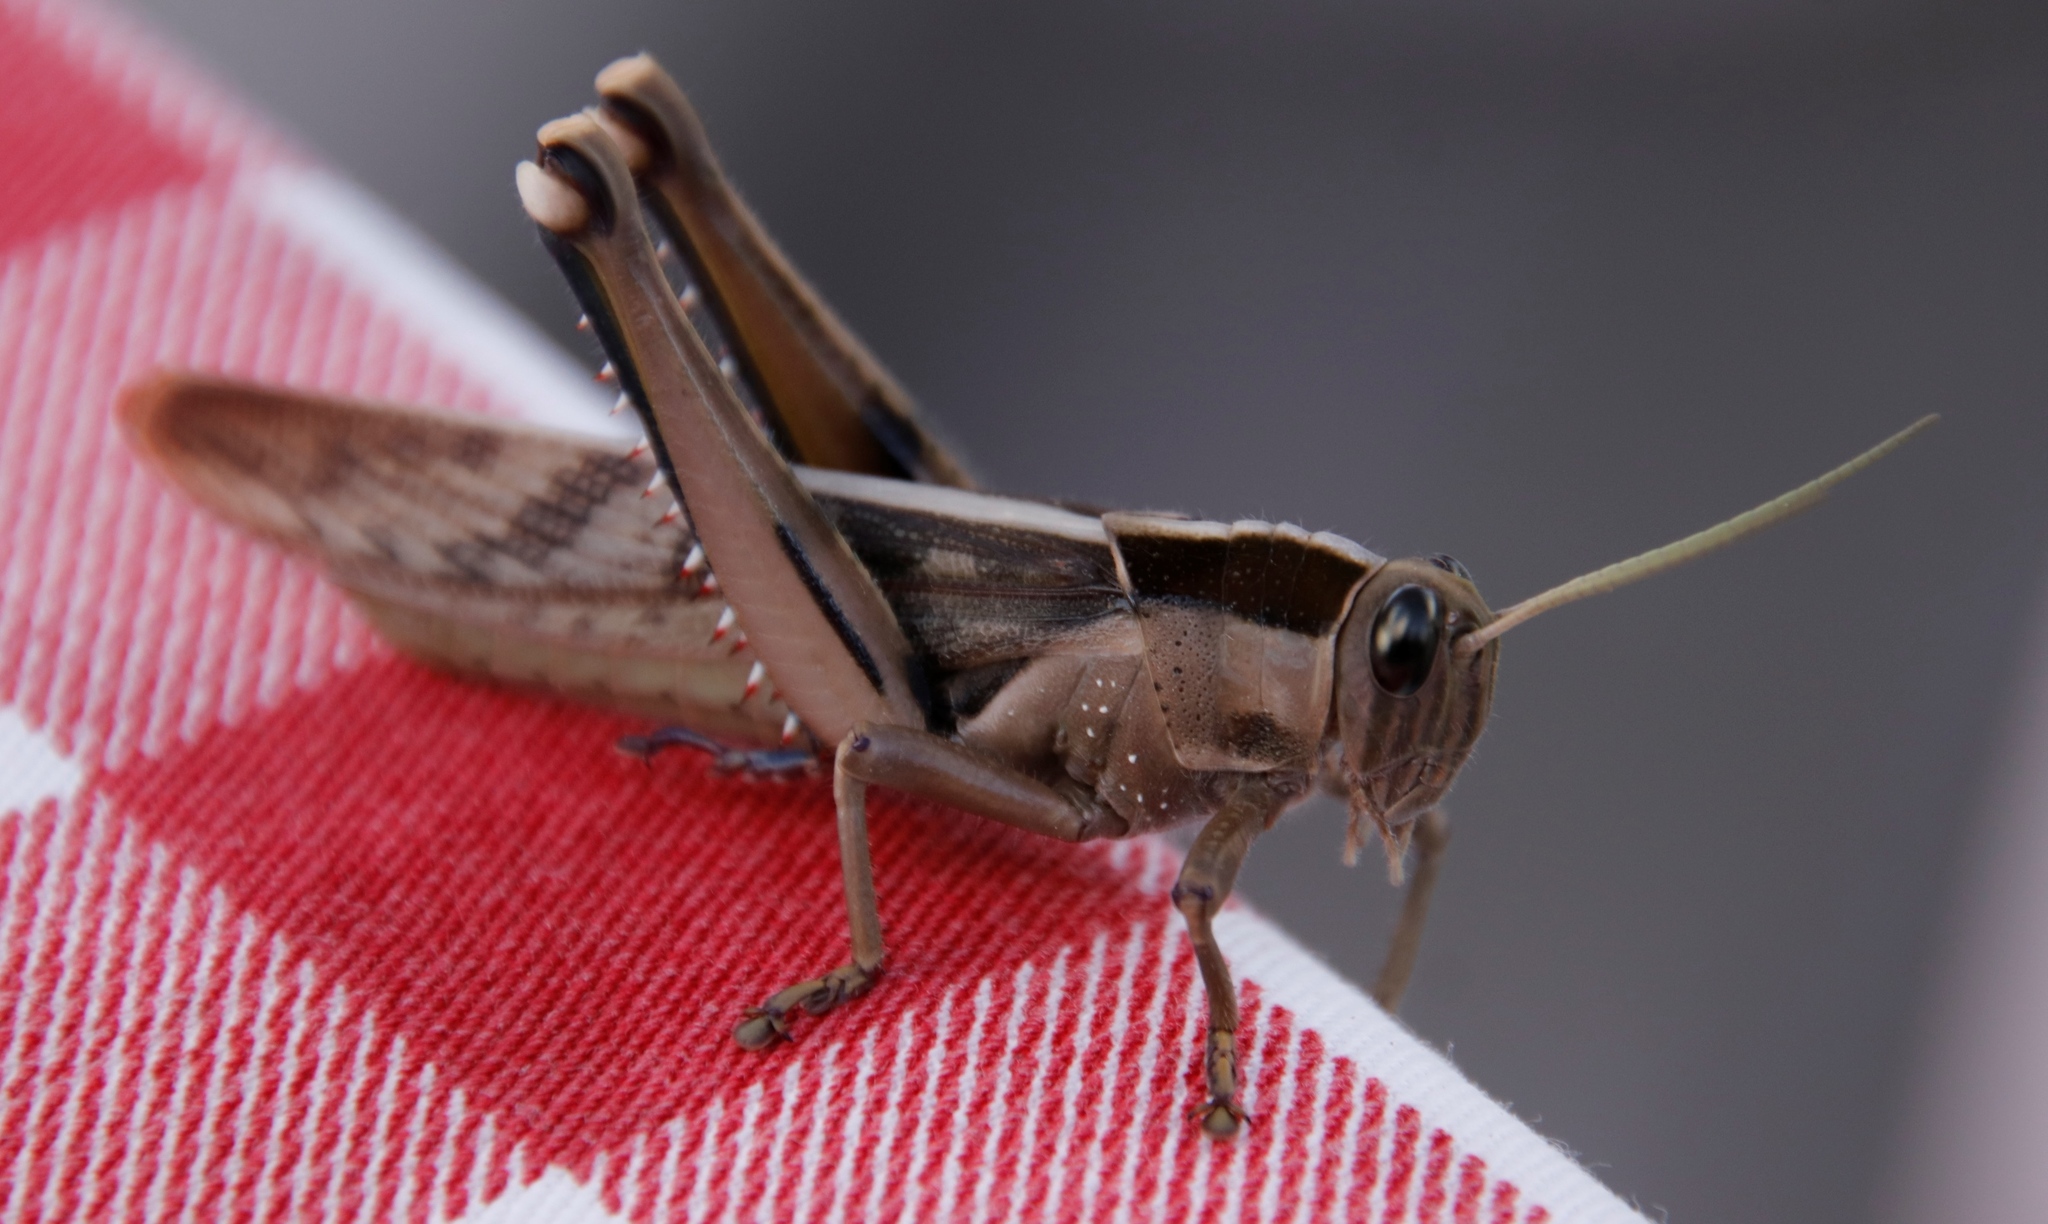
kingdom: Animalia
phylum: Arthropoda
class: Insecta
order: Orthoptera
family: Acrididae
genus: Acanthacris
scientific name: Acanthacris ruficornis
